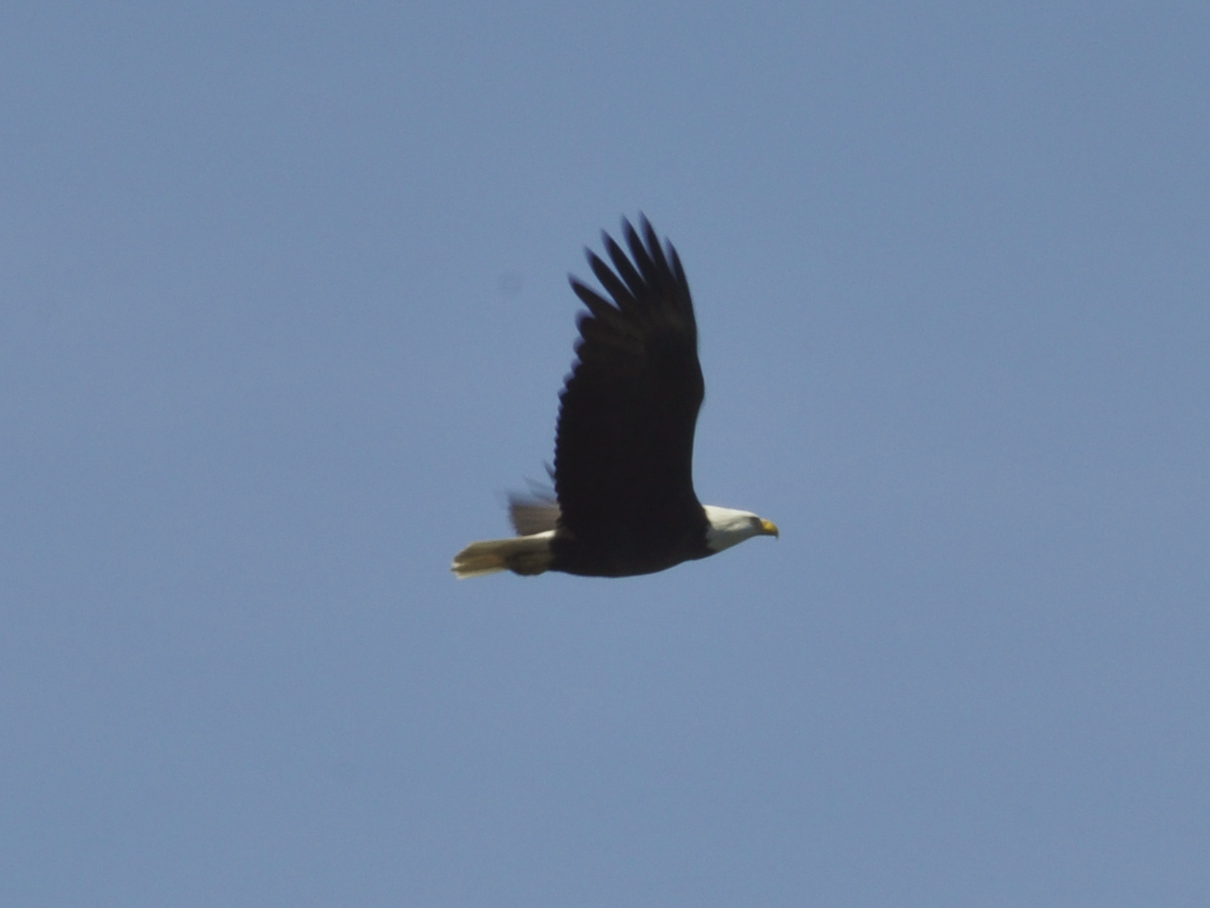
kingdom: Animalia
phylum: Chordata
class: Aves
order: Accipitriformes
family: Accipitridae
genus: Haliaeetus
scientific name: Haliaeetus leucocephalus
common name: Bald eagle
